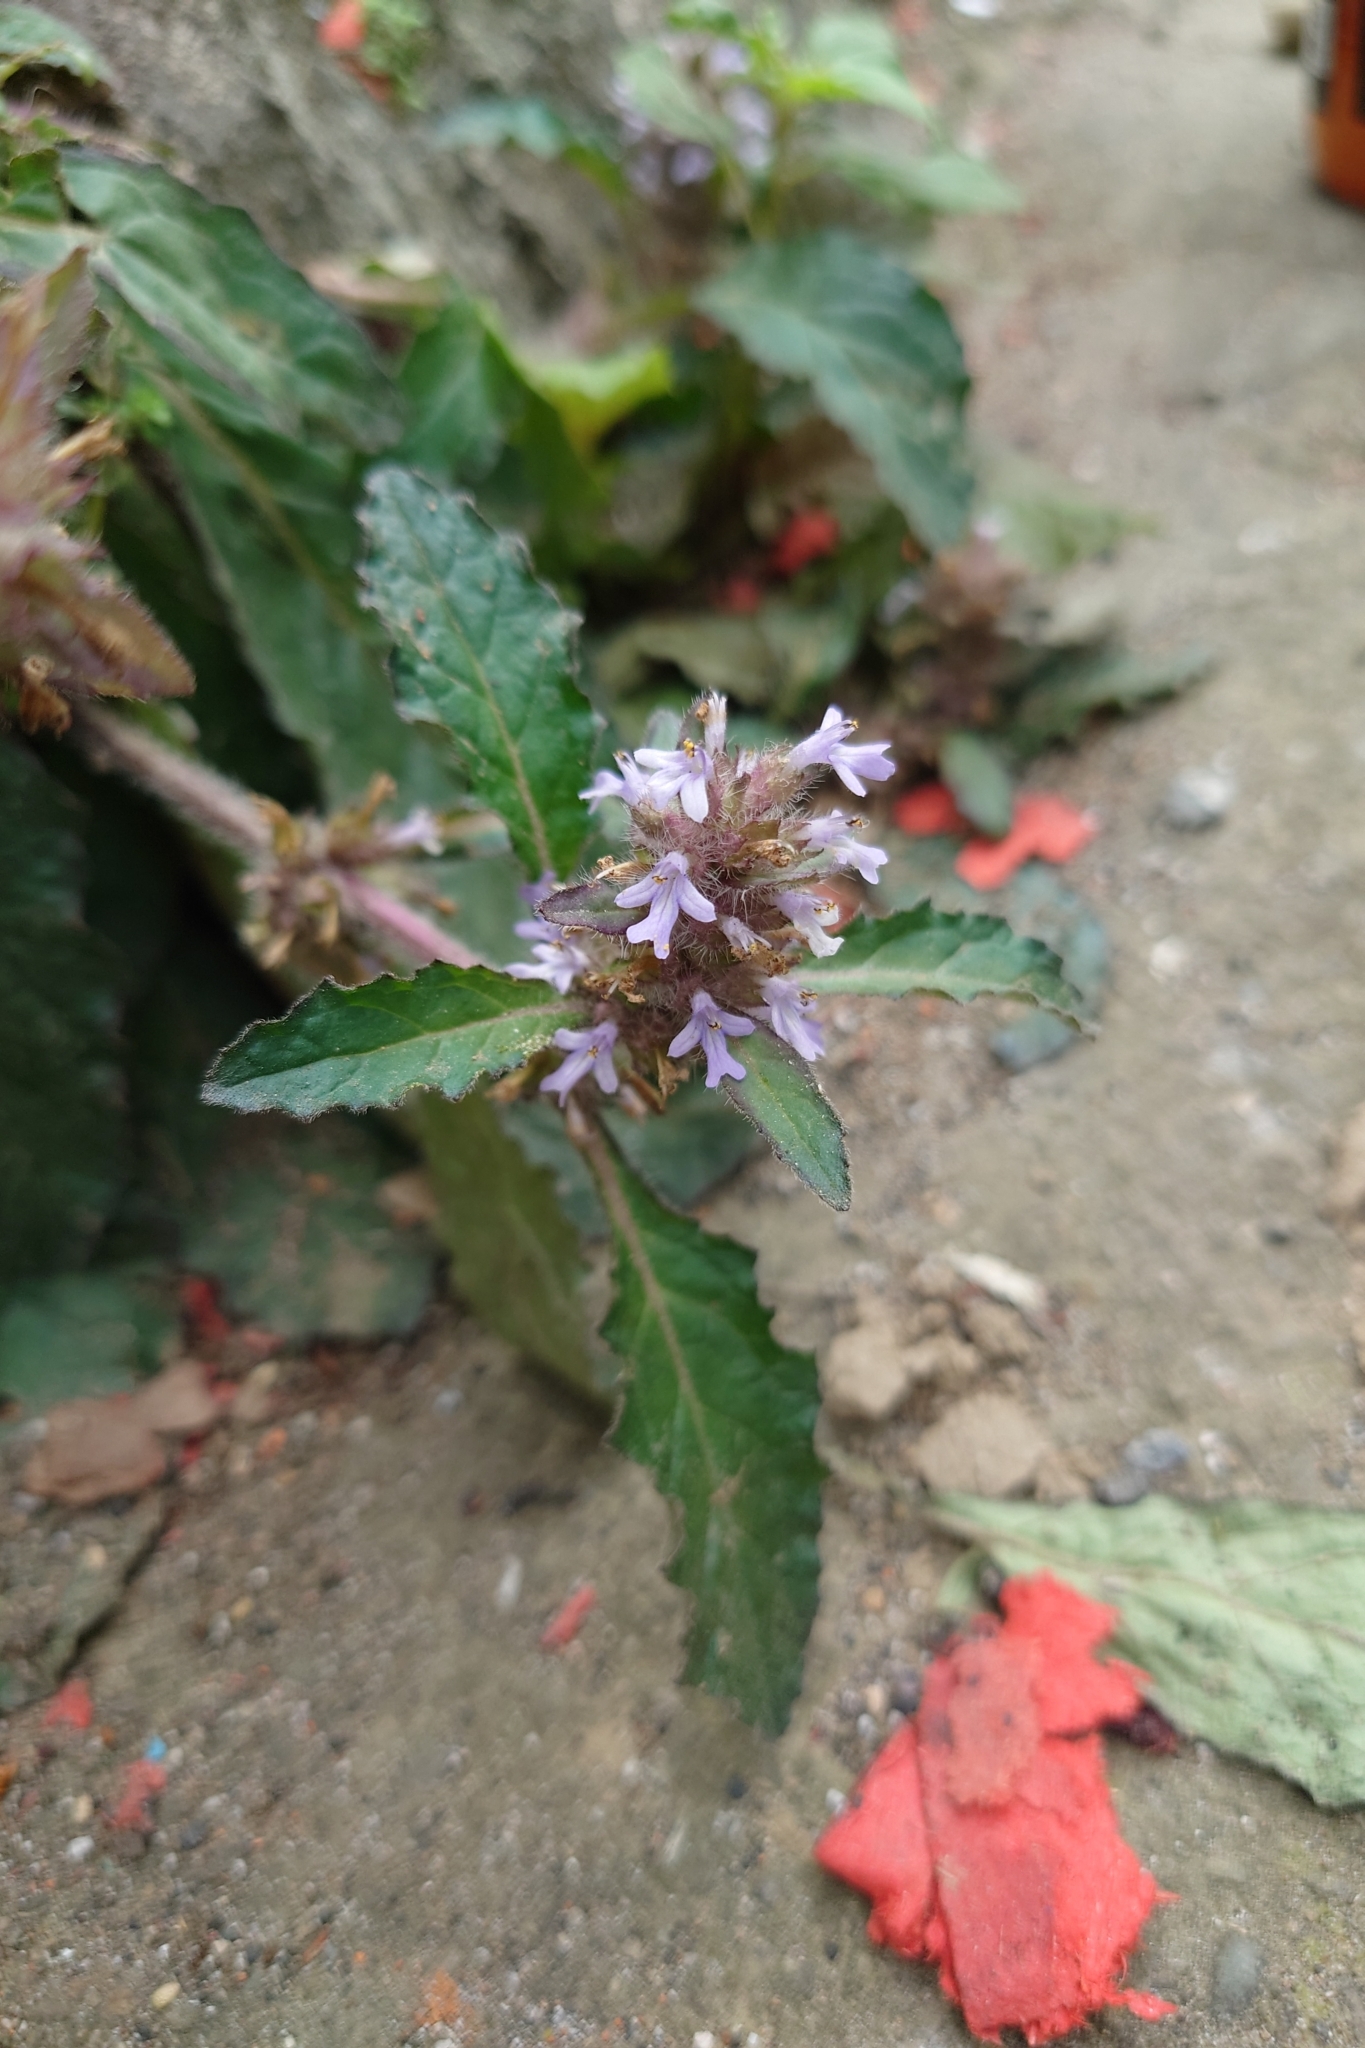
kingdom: Plantae
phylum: Tracheophyta
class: Magnoliopsida
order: Lamiales
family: Lamiaceae
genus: Ajuga
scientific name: Ajuga taiwanensis
